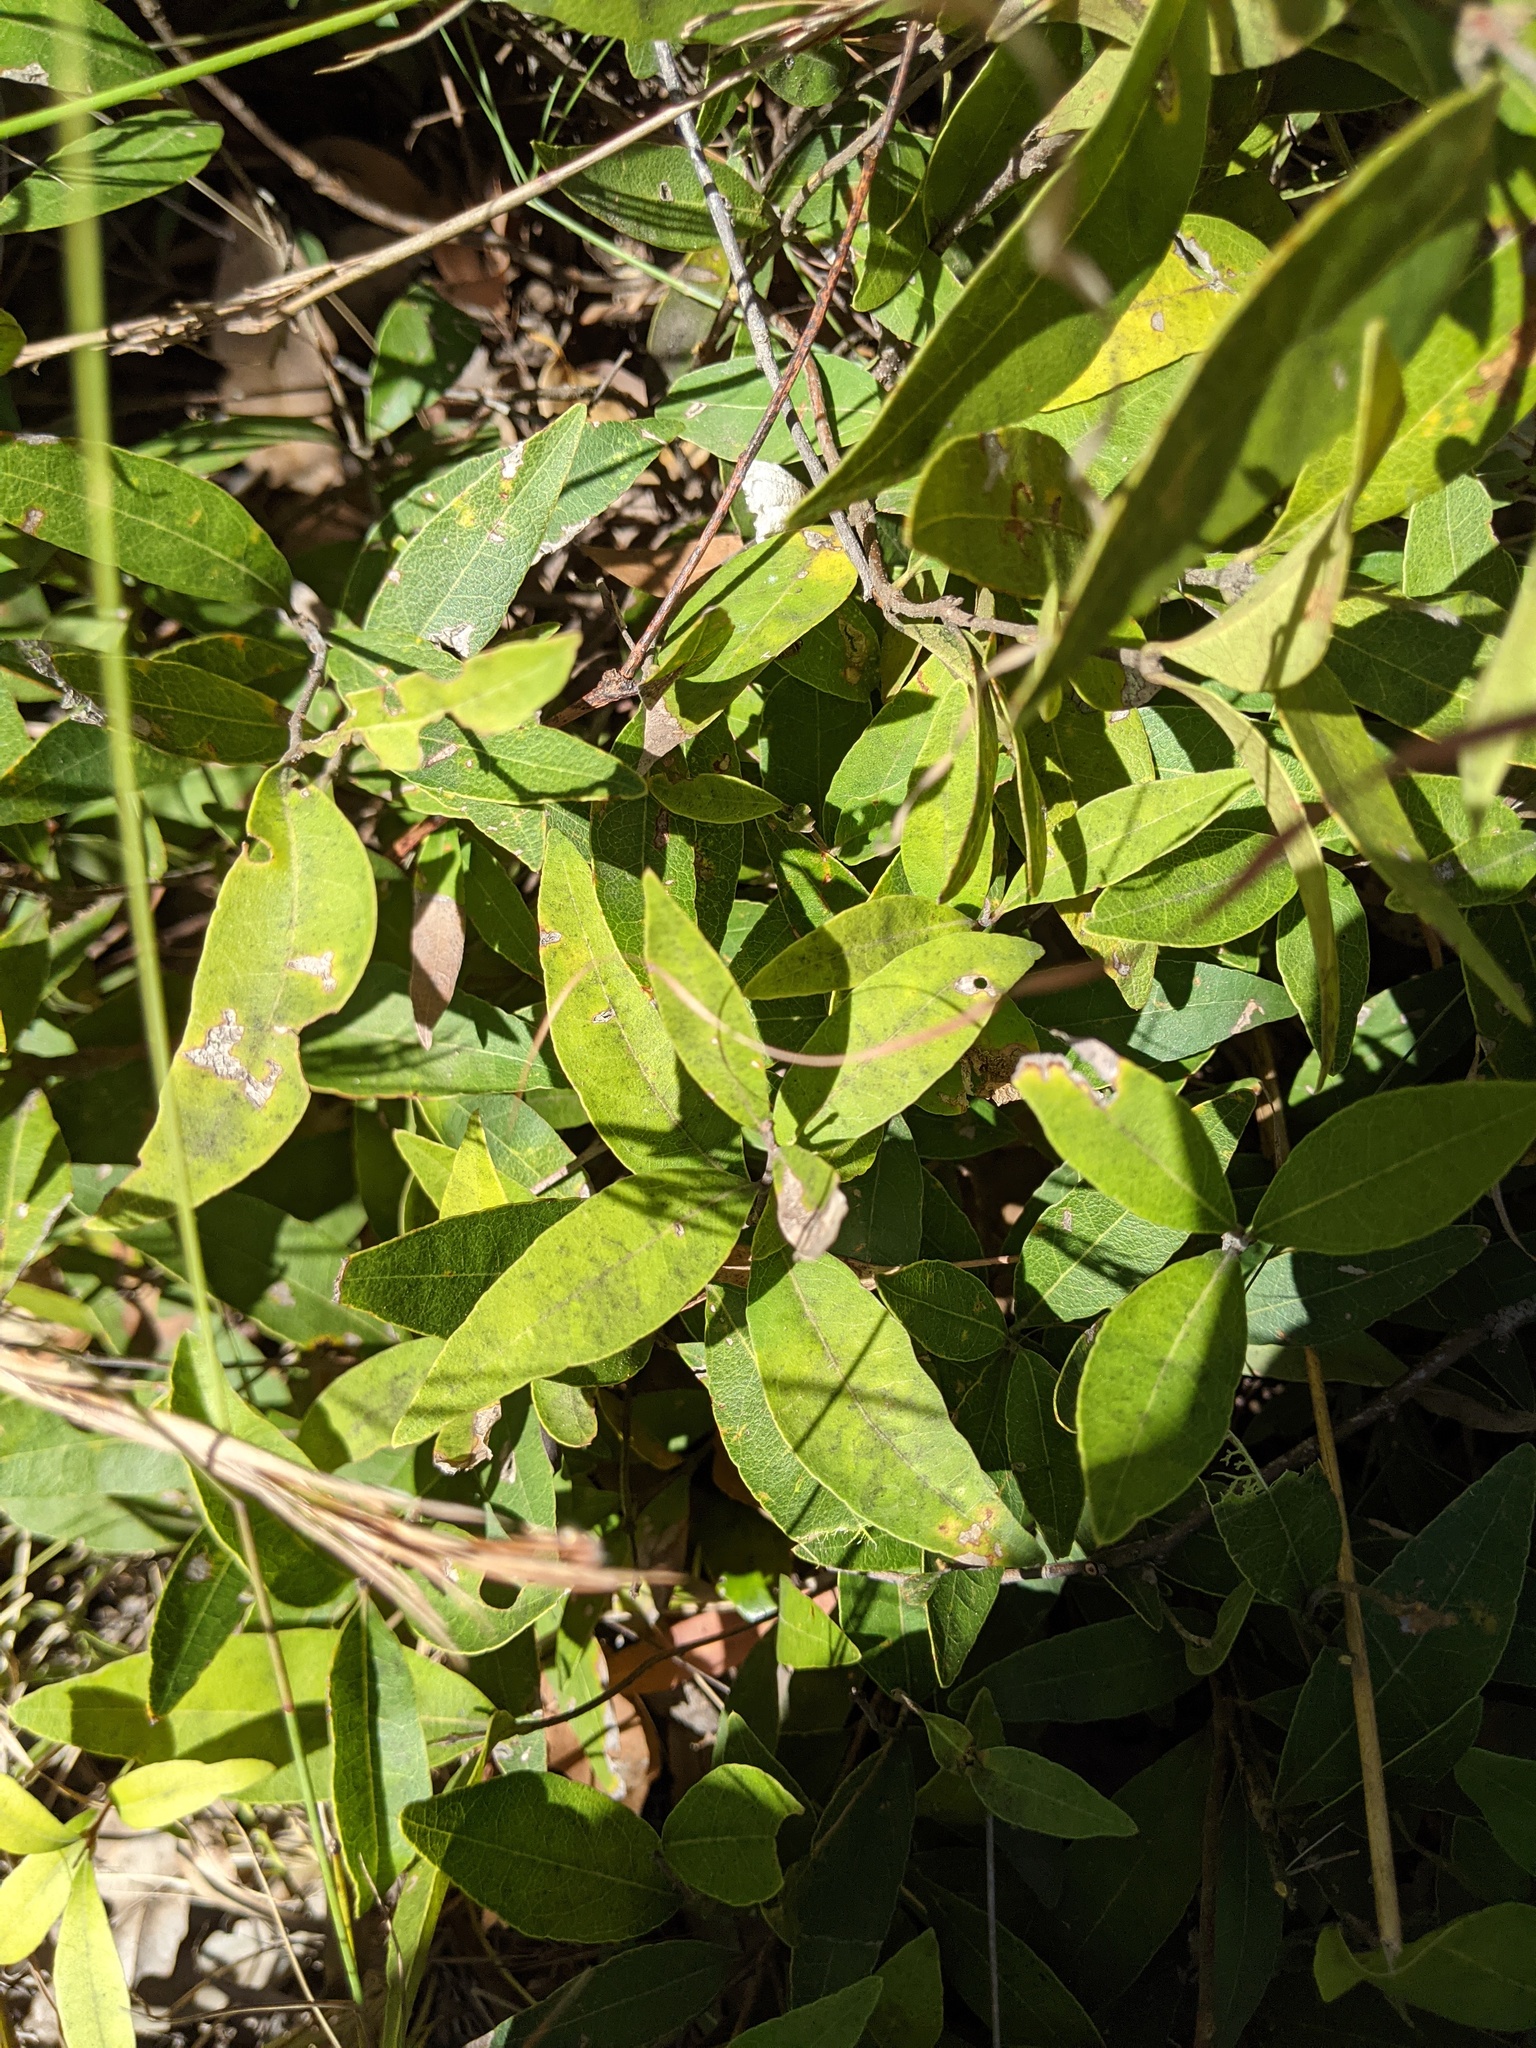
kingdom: Plantae
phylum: Tracheophyta
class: Magnoliopsida
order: Lamiales
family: Oleaceae
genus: Notelaea
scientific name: Notelaea ovata
